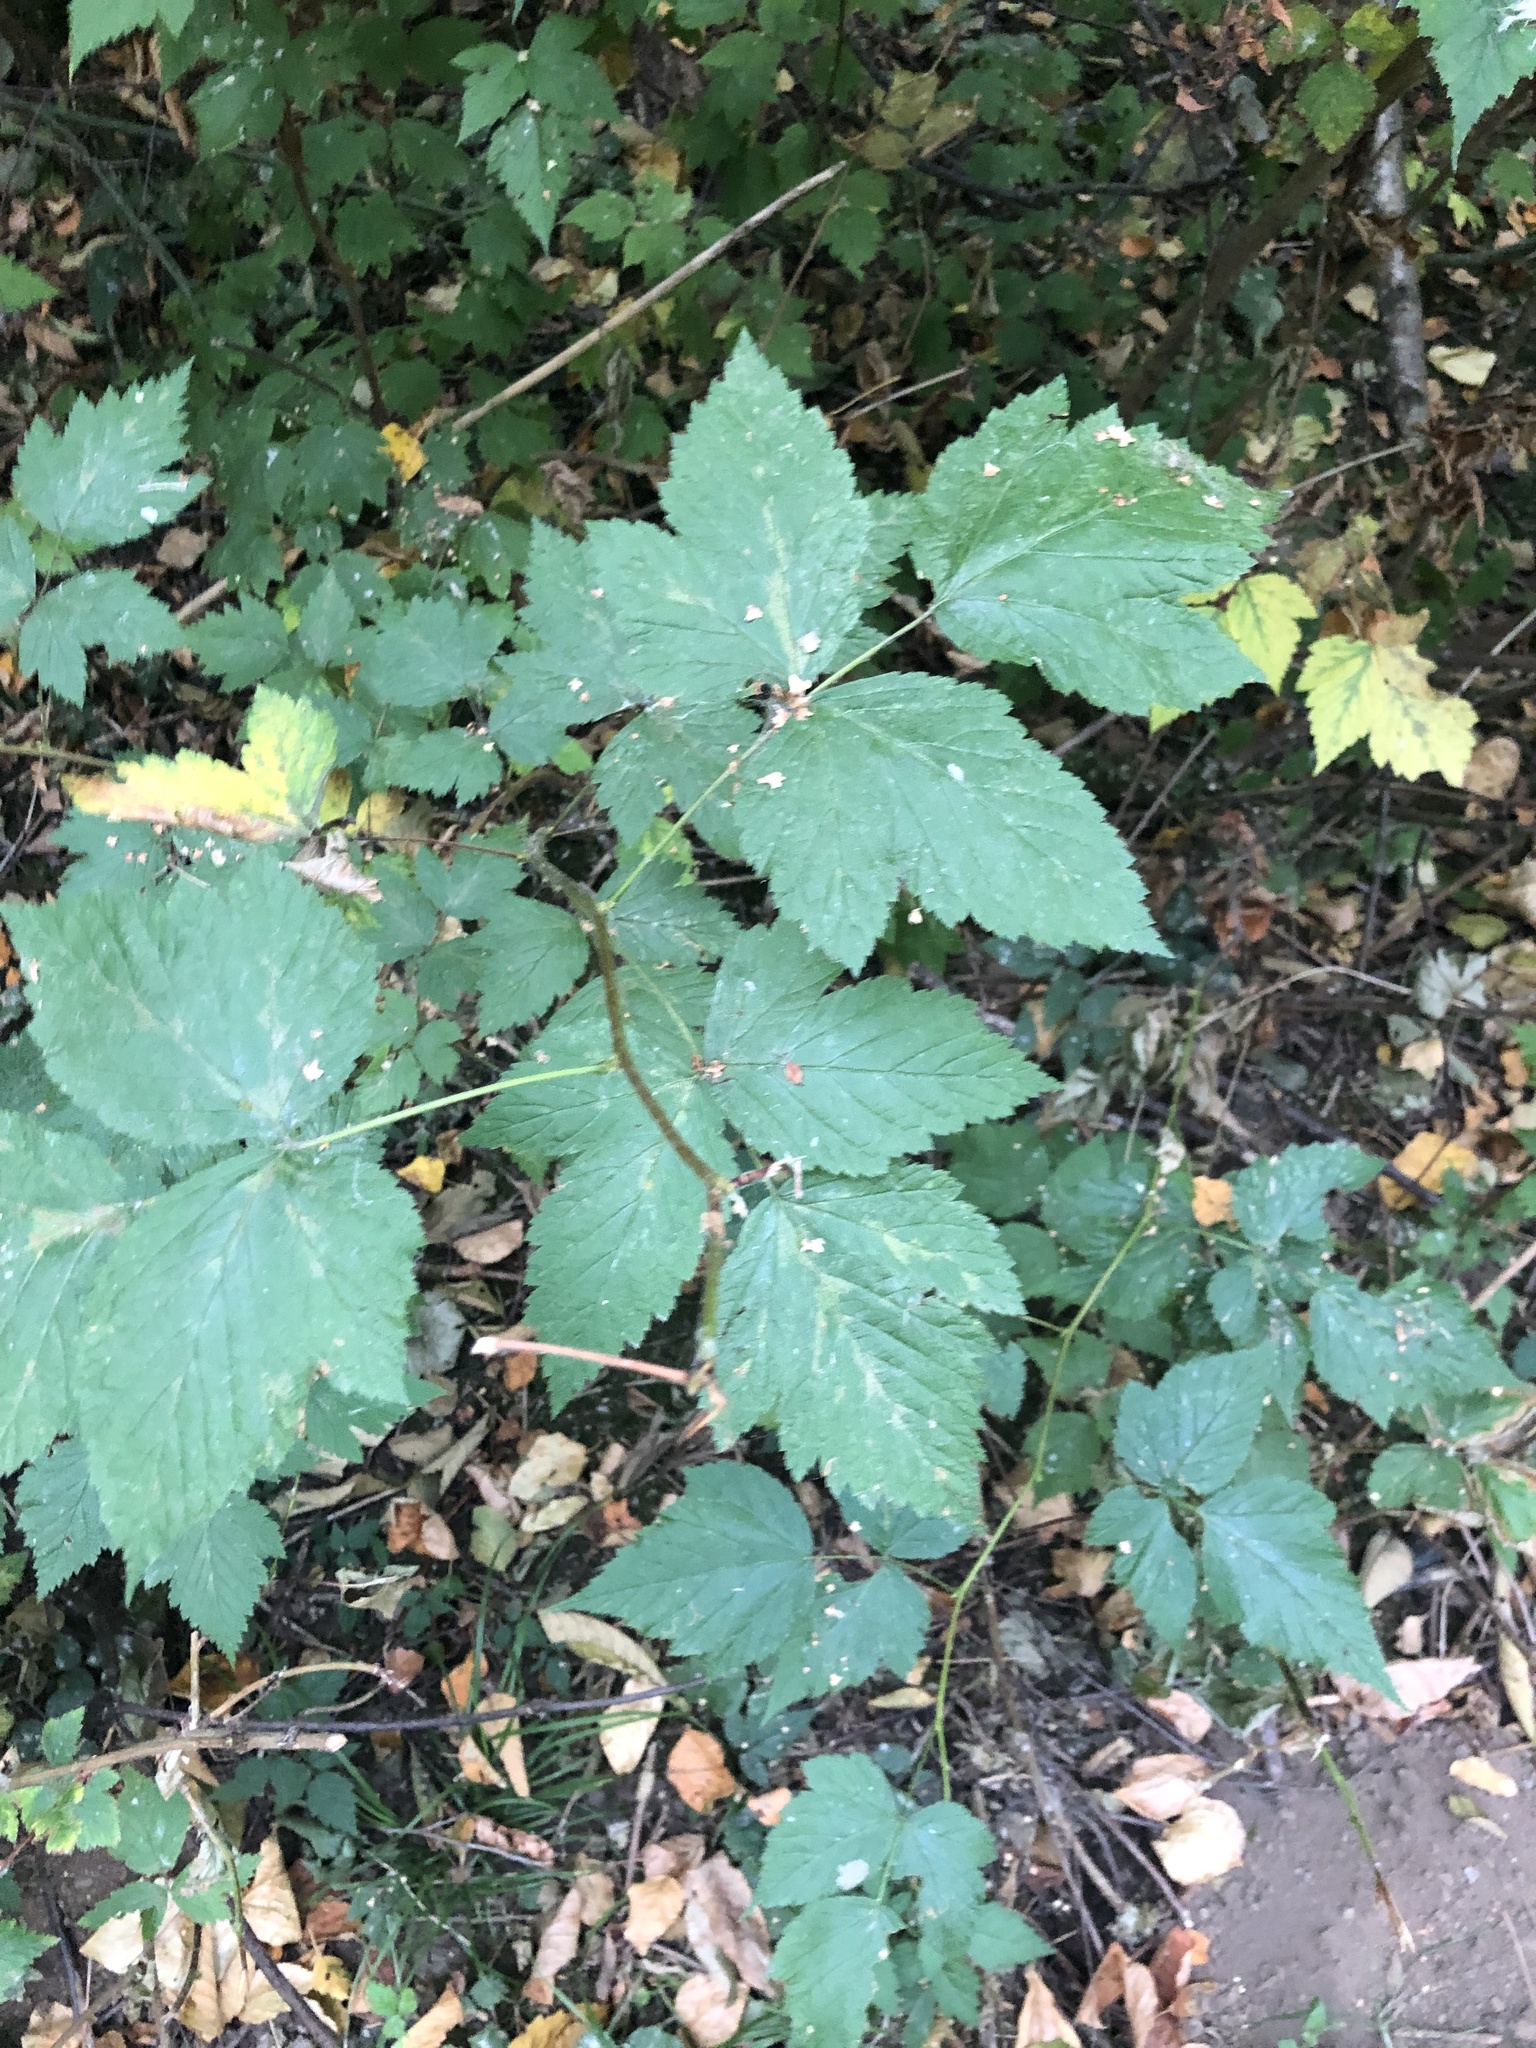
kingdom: Plantae
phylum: Tracheophyta
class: Magnoliopsida
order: Rosales
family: Rosaceae
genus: Rubus
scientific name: Rubus spectabilis
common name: Salmonberry
